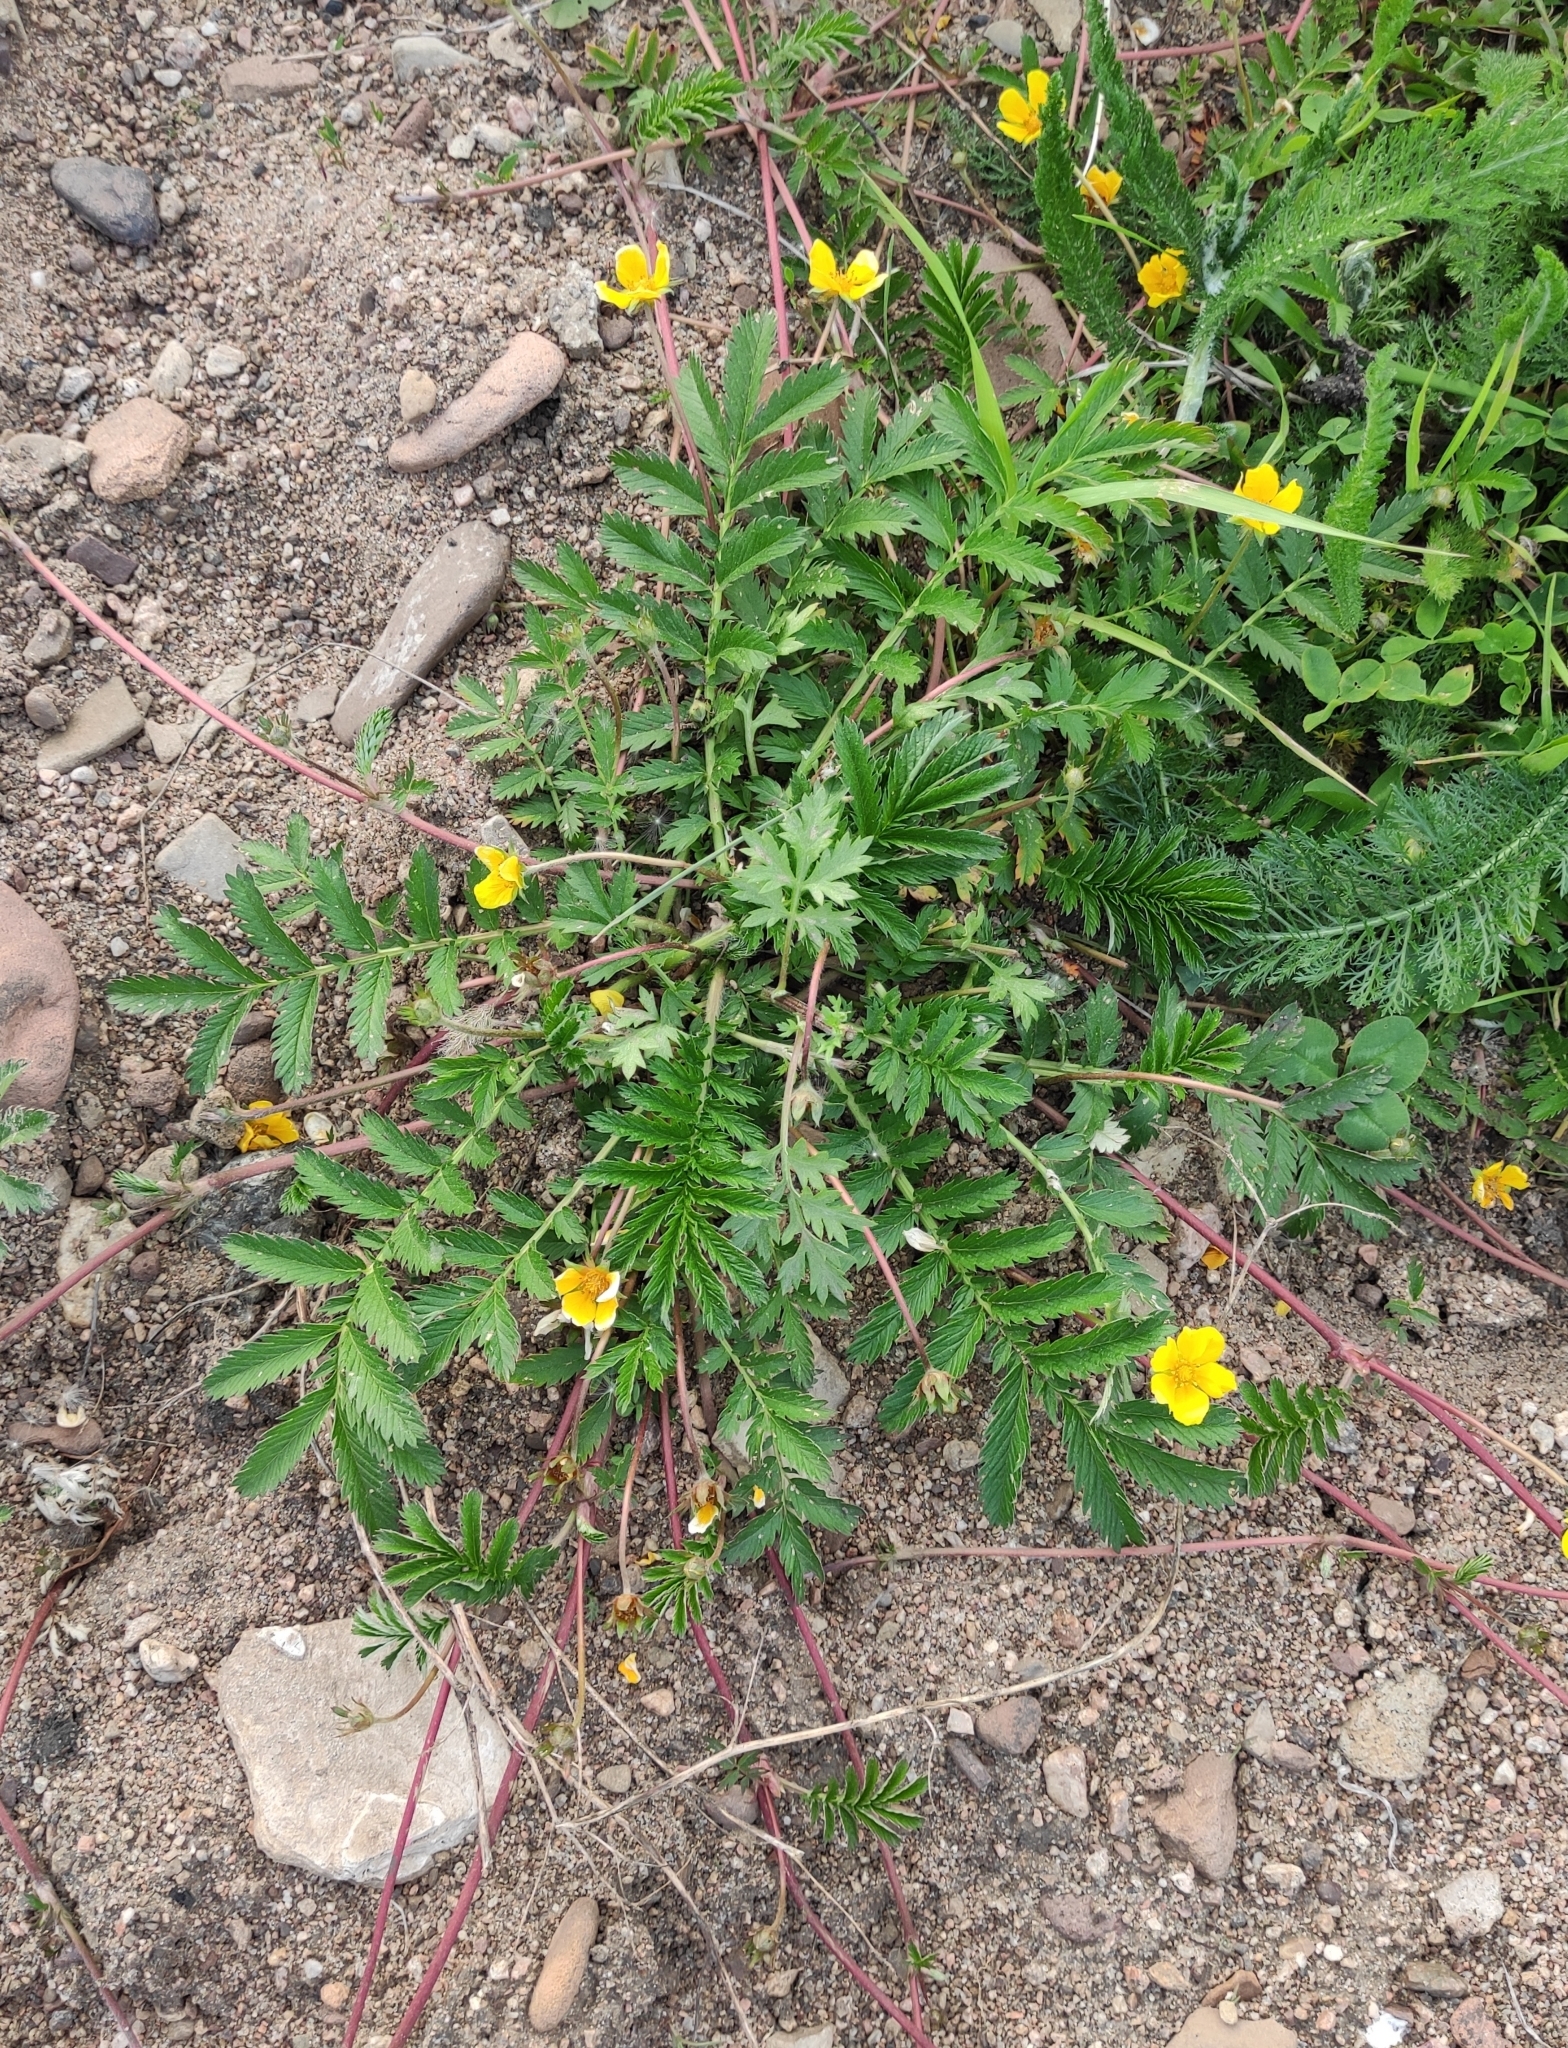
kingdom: Plantae
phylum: Tracheophyta
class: Magnoliopsida
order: Rosales
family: Rosaceae
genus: Argentina
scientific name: Argentina anserina
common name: Common silverweed
